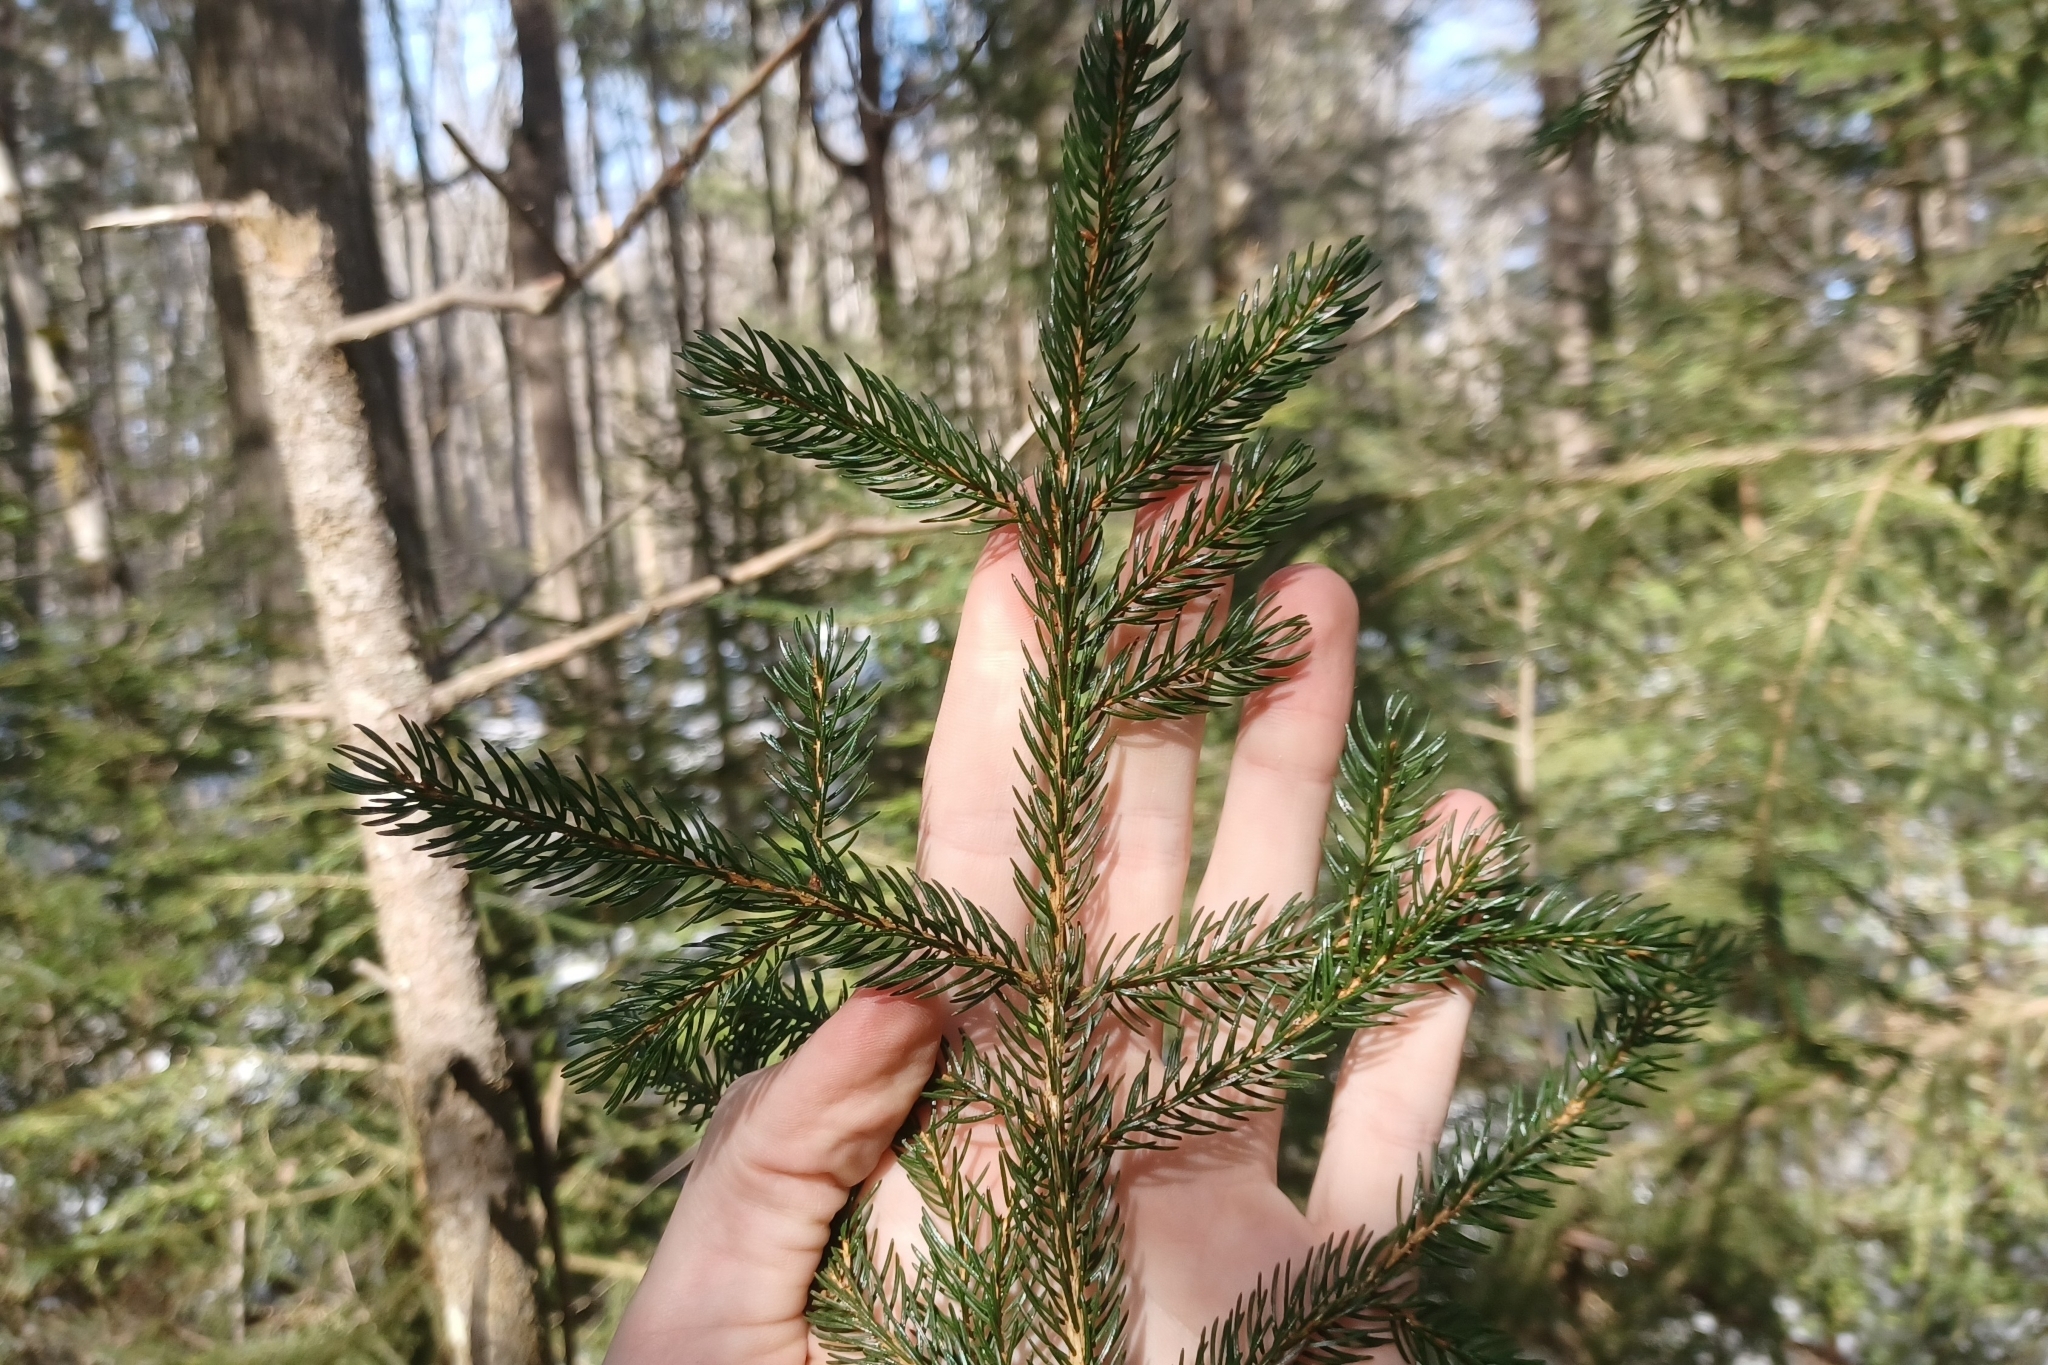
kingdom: Plantae
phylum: Tracheophyta
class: Pinopsida
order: Pinales
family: Pinaceae
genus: Picea
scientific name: Picea rubens
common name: Red spruce
